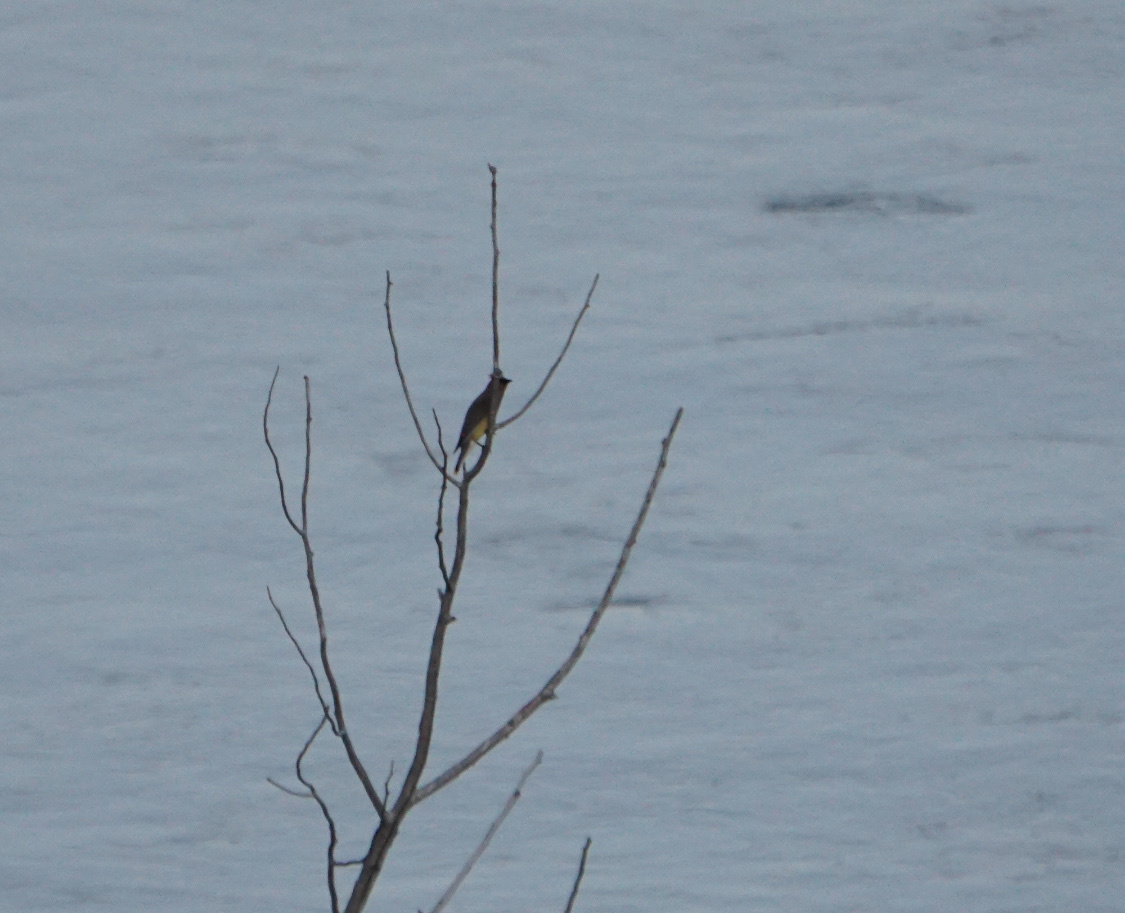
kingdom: Animalia
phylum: Chordata
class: Aves
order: Passeriformes
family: Bombycillidae
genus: Bombycilla
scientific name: Bombycilla cedrorum
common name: Cedar waxwing
